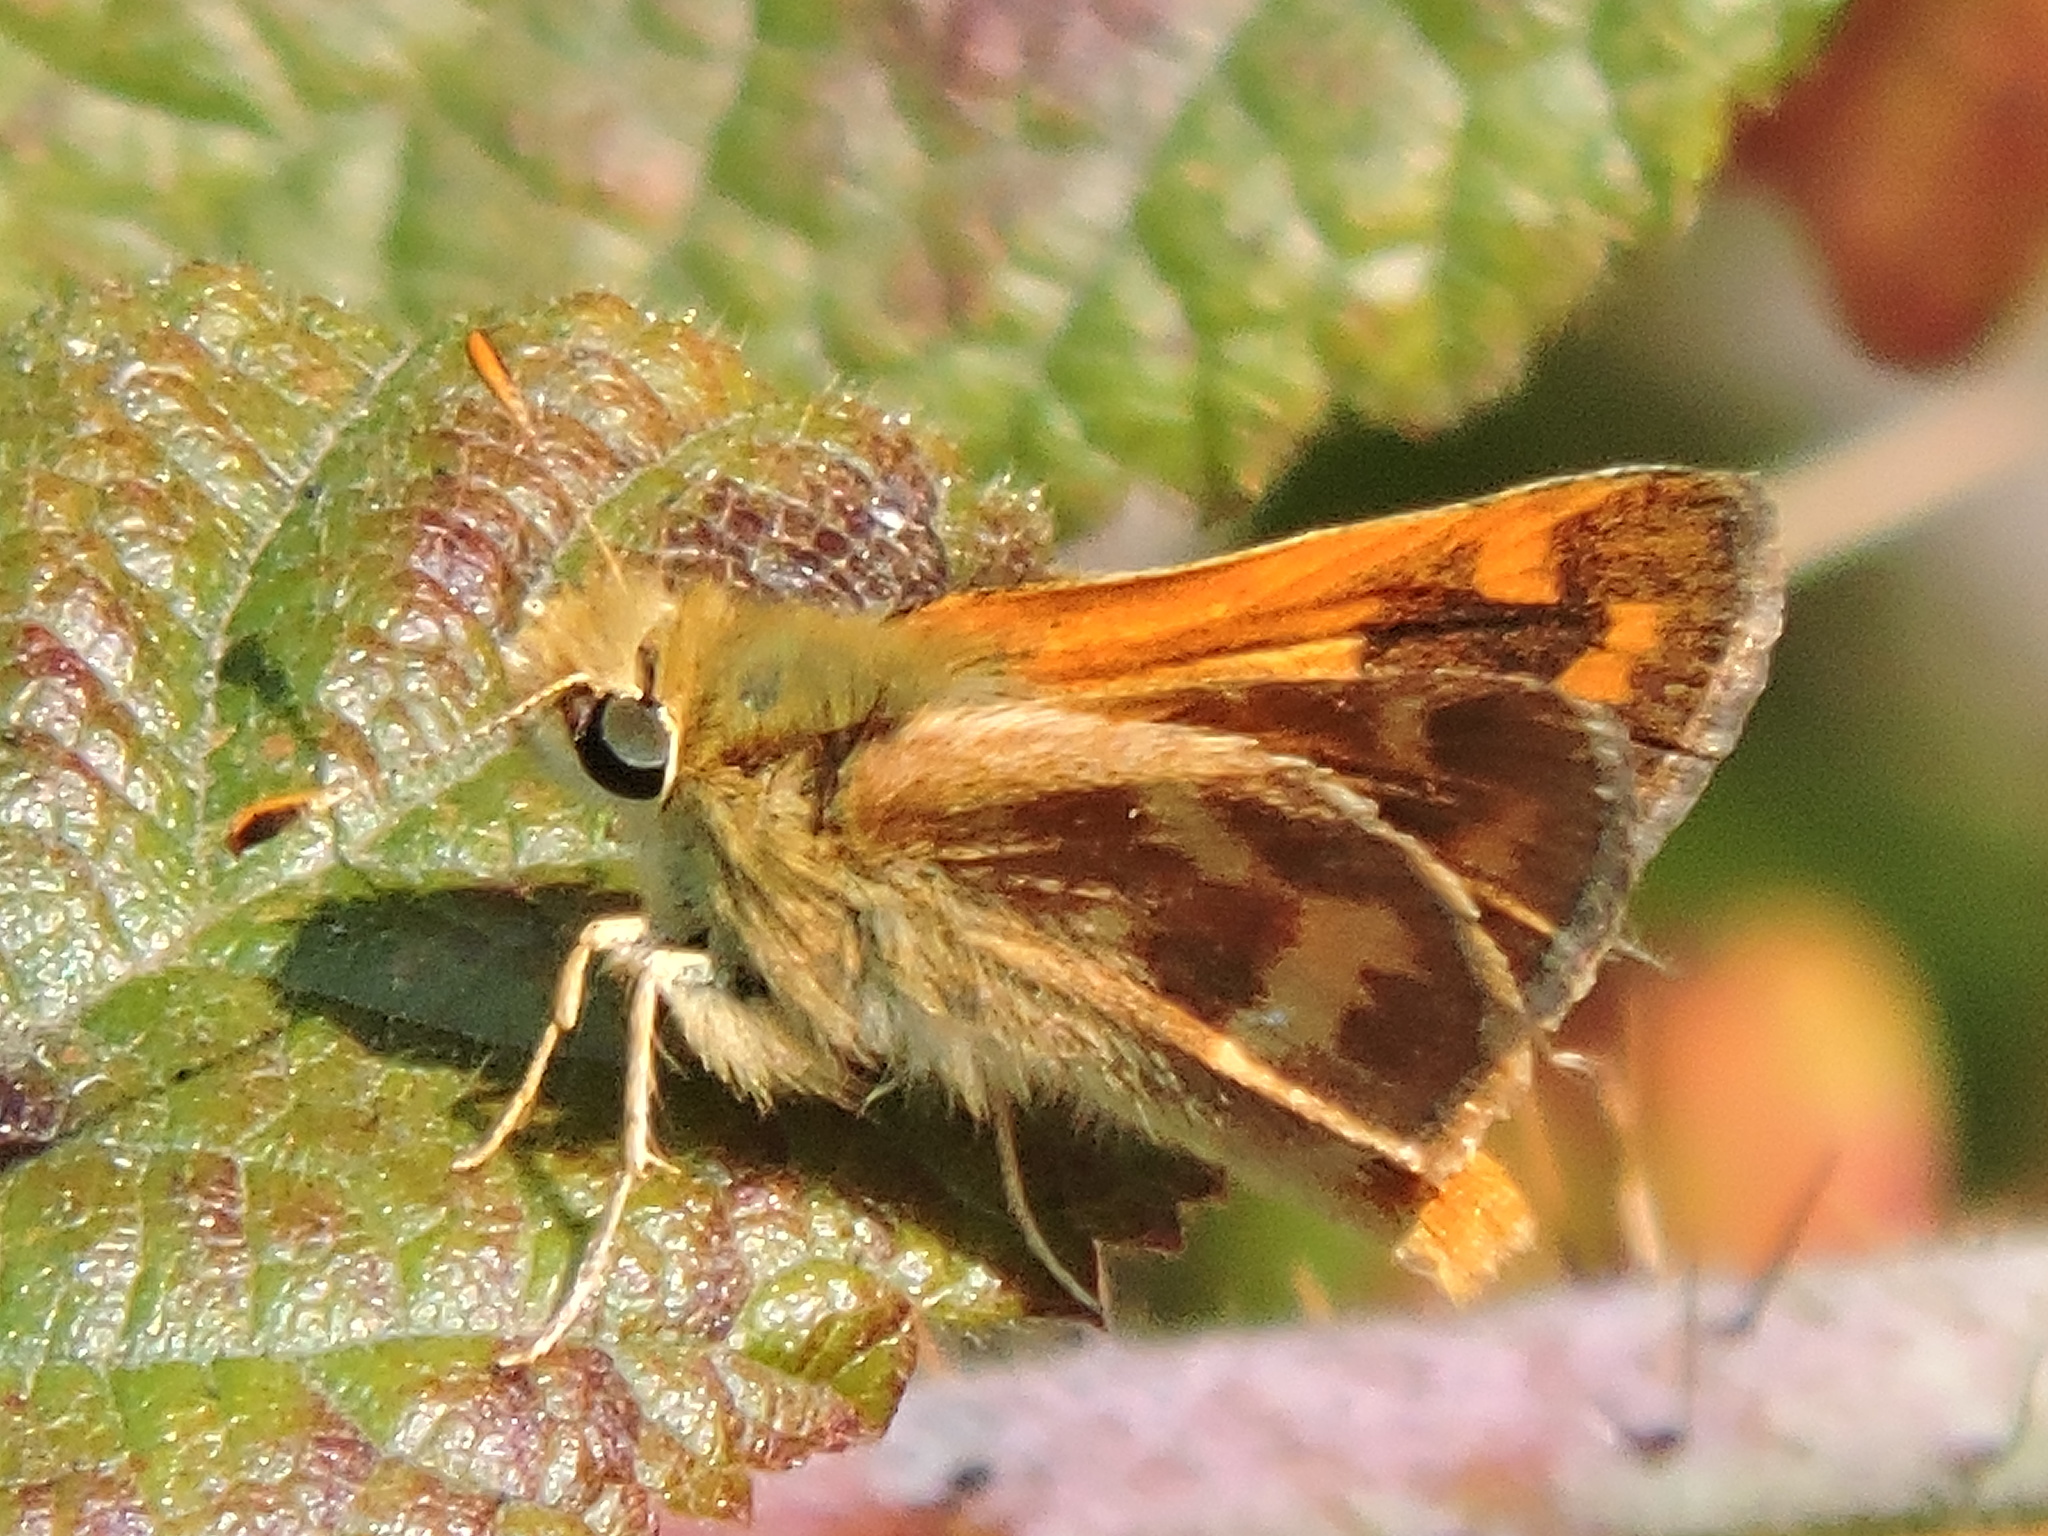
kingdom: Animalia
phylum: Arthropoda
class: Insecta
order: Lepidoptera
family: Hesperiidae
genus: Ochlodes
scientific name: Ochlodes sylvanoides
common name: Woodland skipper
